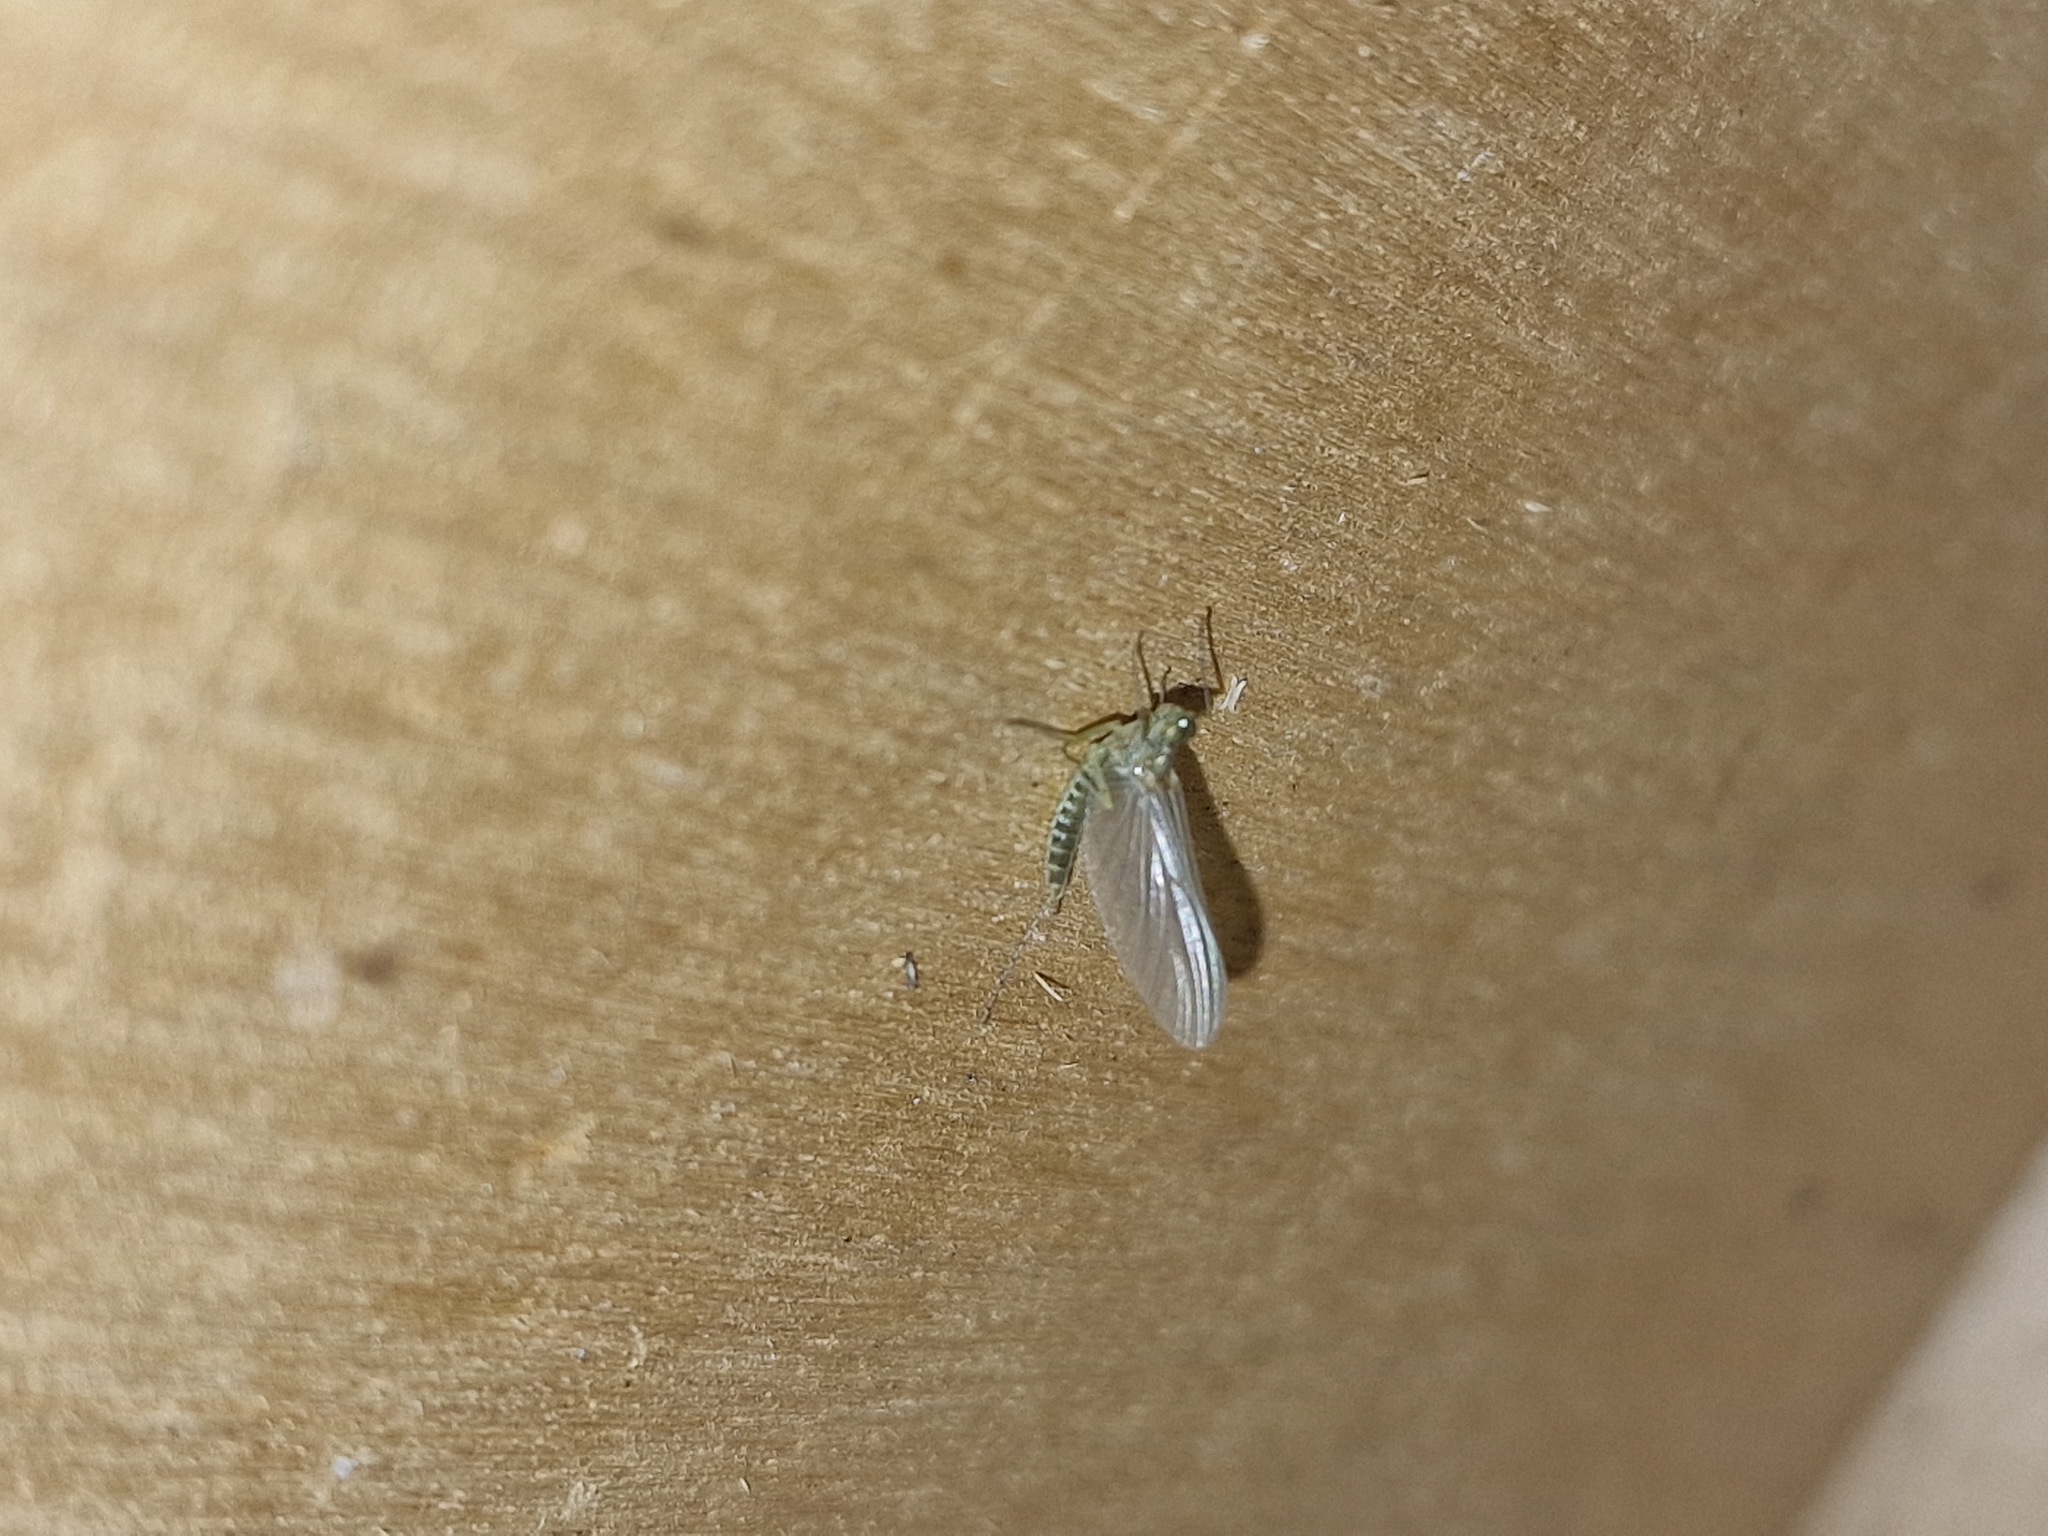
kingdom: Animalia
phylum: Arthropoda
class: Insecta
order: Ephemeroptera
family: Baetidae
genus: Cloeon
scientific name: Cloeon dipterum
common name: Pond olive
